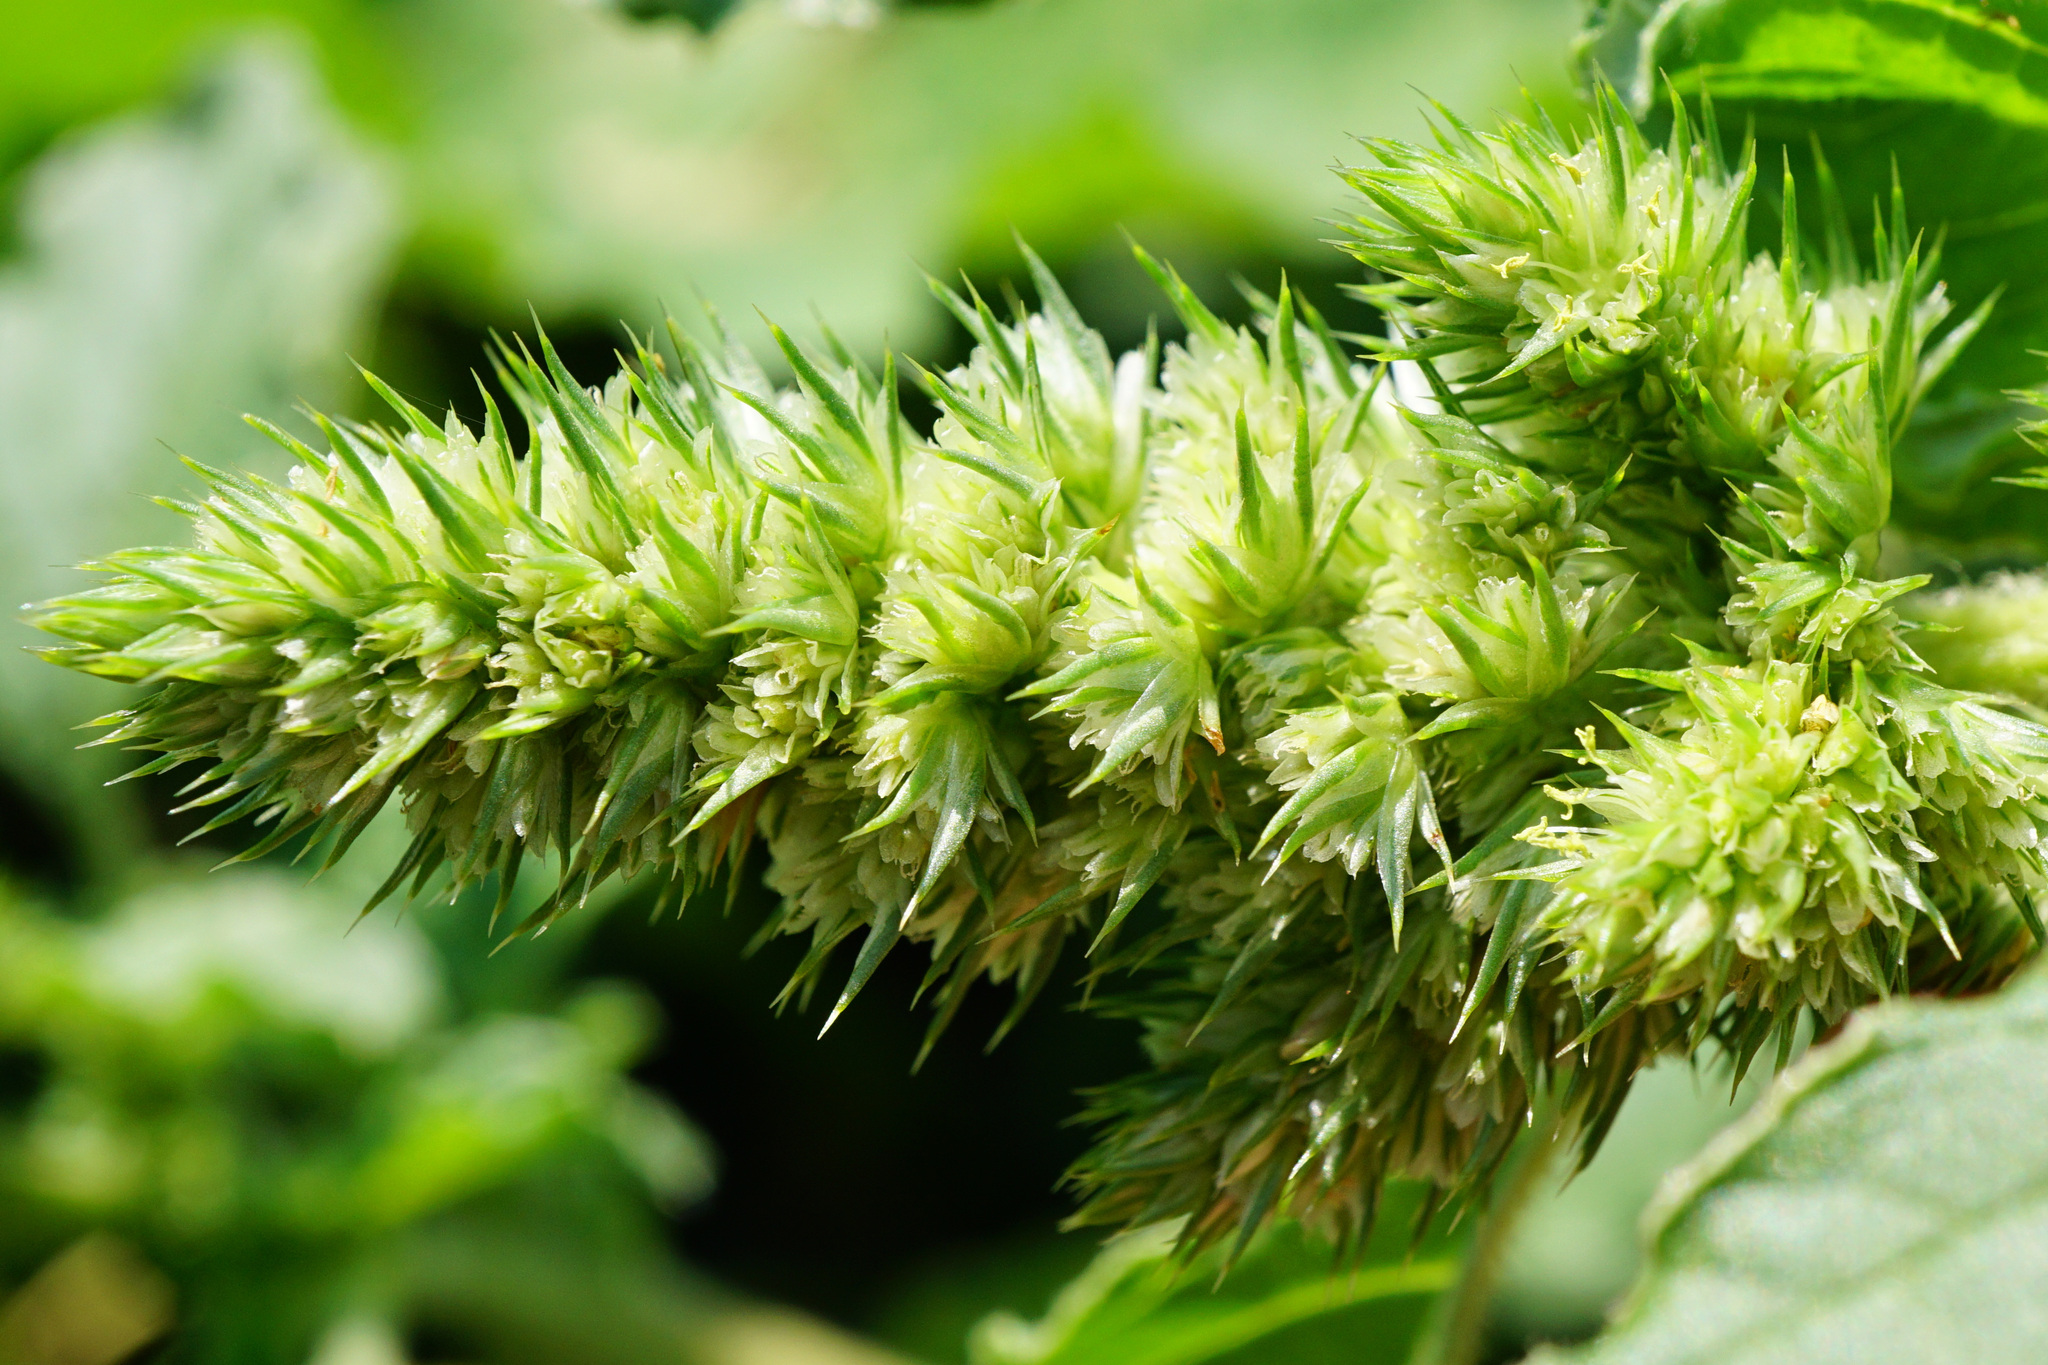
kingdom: Plantae
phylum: Tracheophyta
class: Magnoliopsida
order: Caryophyllales
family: Amaranthaceae
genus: Amaranthus
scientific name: Amaranthus retroflexus
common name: Redroot amaranth
